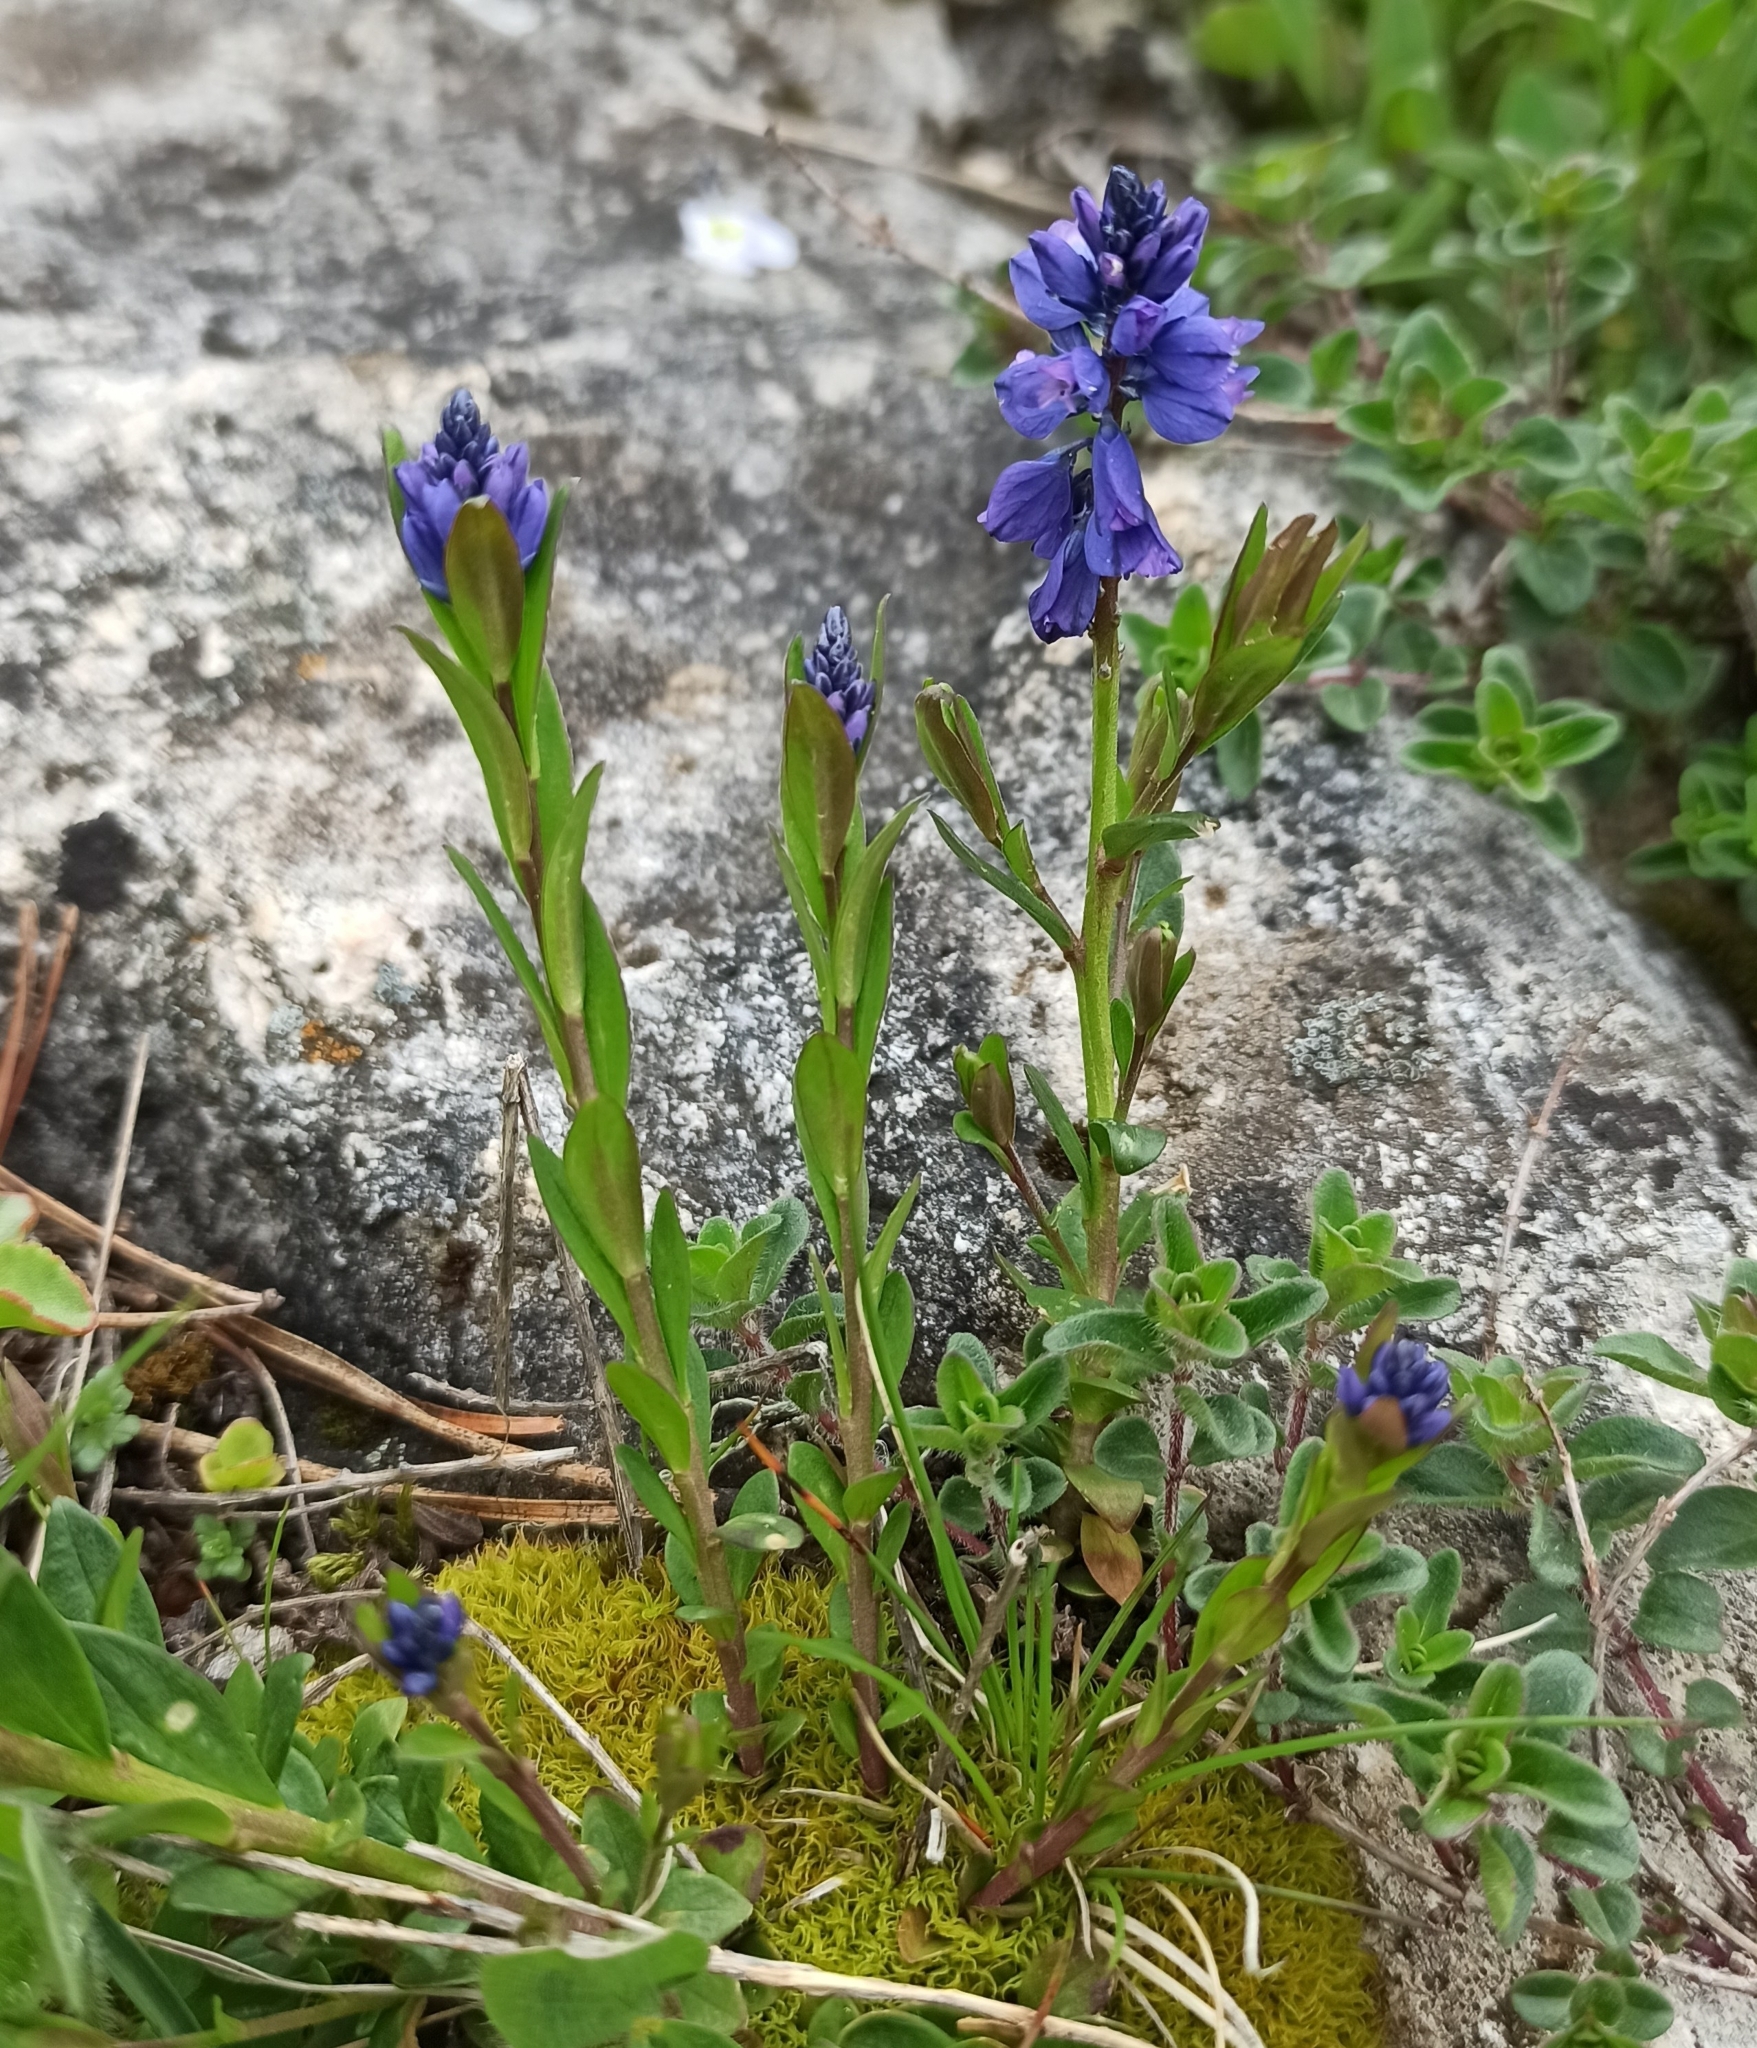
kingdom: Plantae
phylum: Tracheophyta
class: Magnoliopsida
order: Fabales
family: Polygalaceae
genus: Polygala
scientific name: Polygala caucasica
